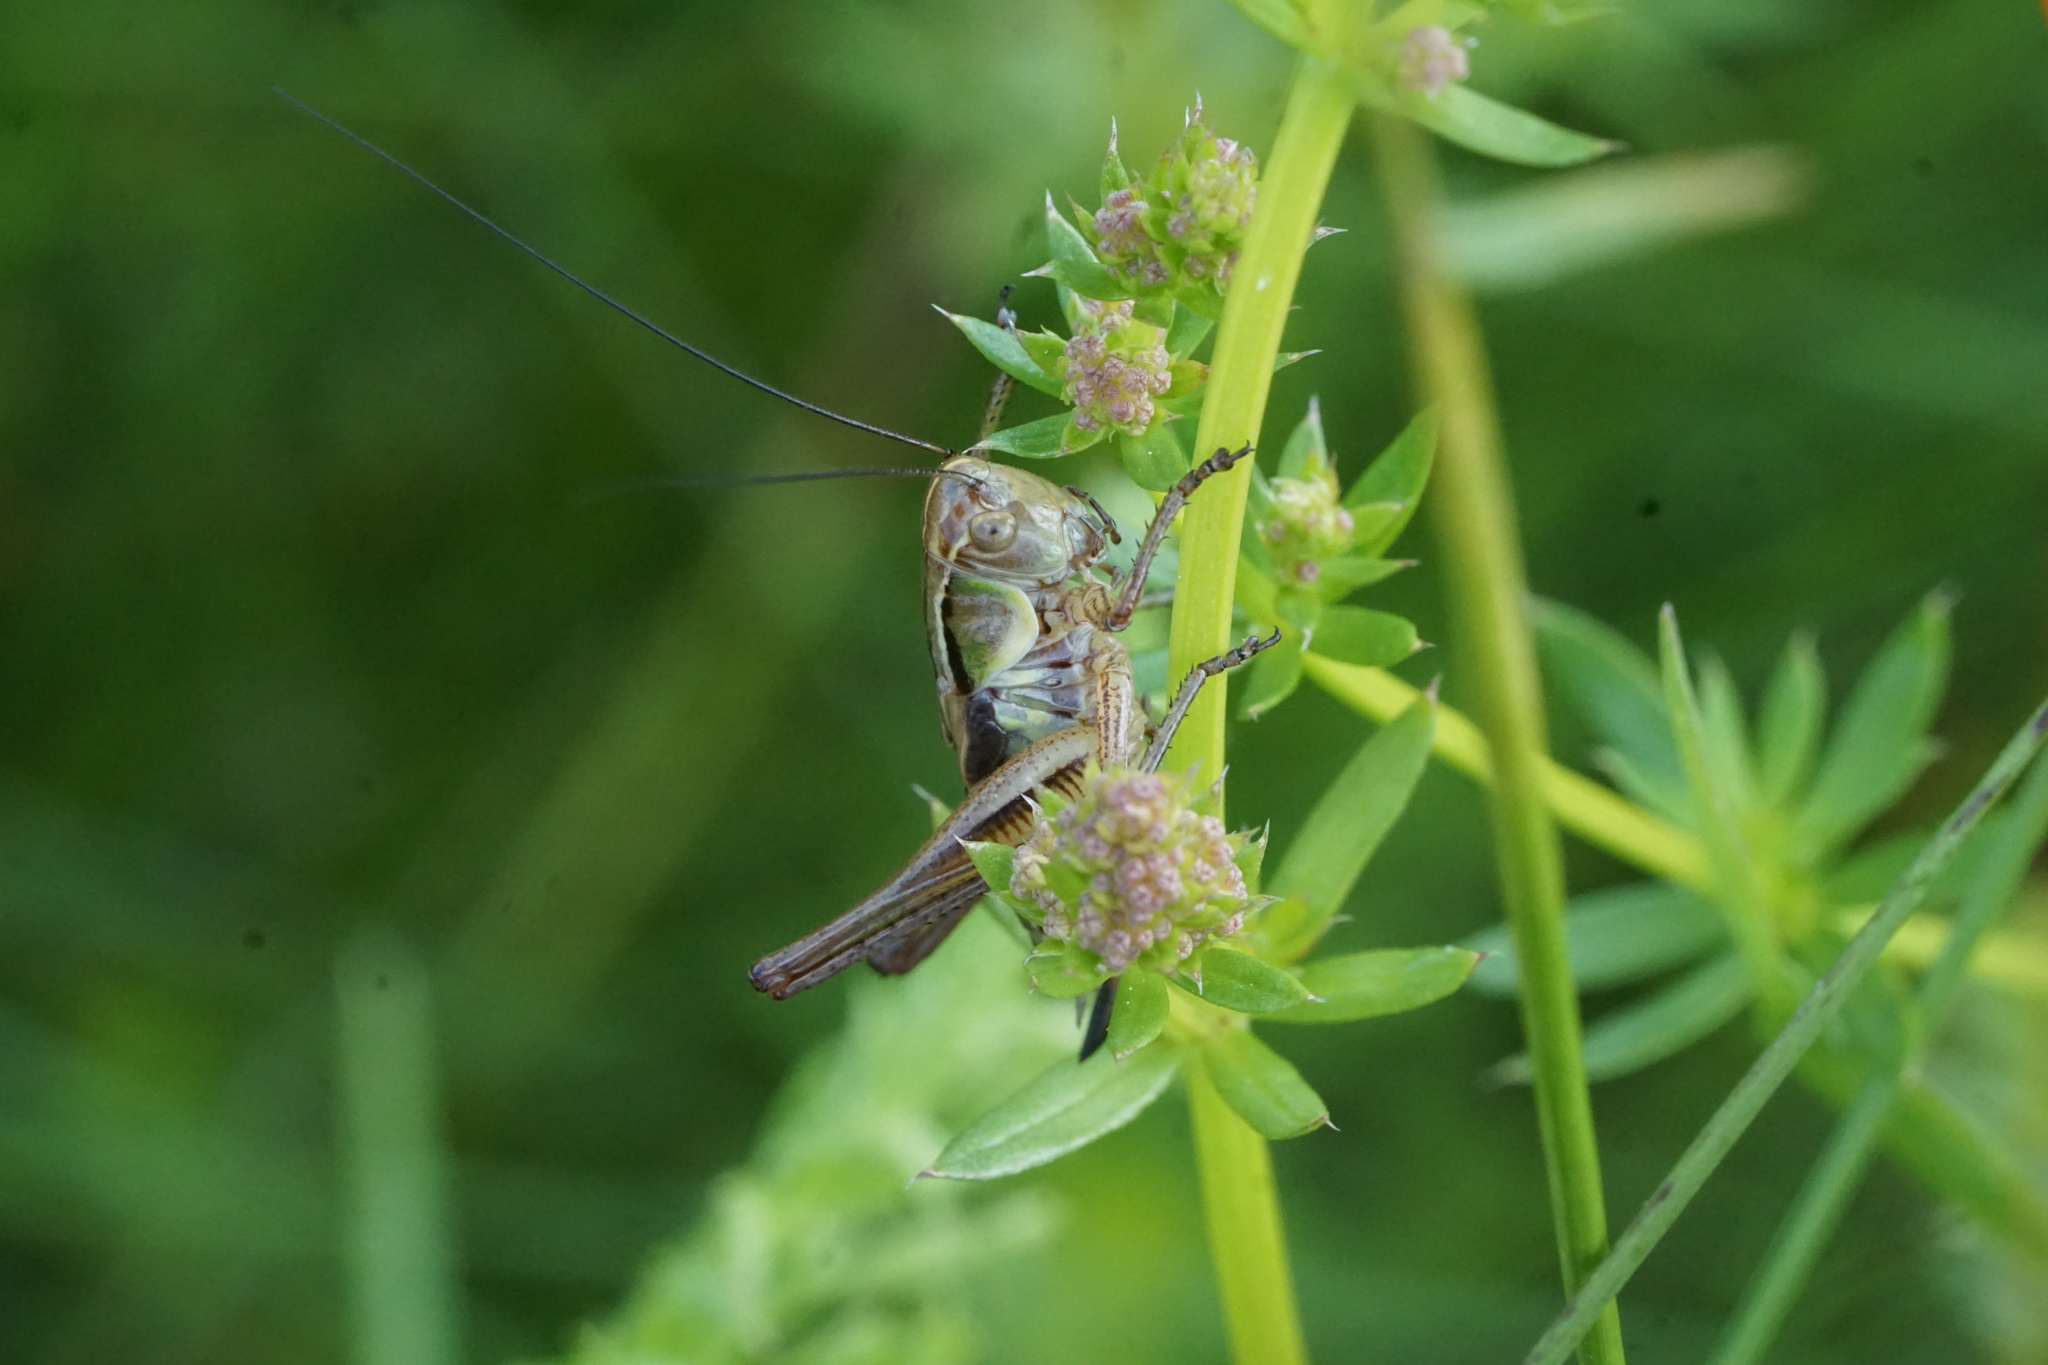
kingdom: Animalia
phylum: Arthropoda
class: Insecta
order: Orthoptera
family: Tettigoniidae
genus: Roeseliana
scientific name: Roeseliana roeselii
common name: Roesel's bush cricket
